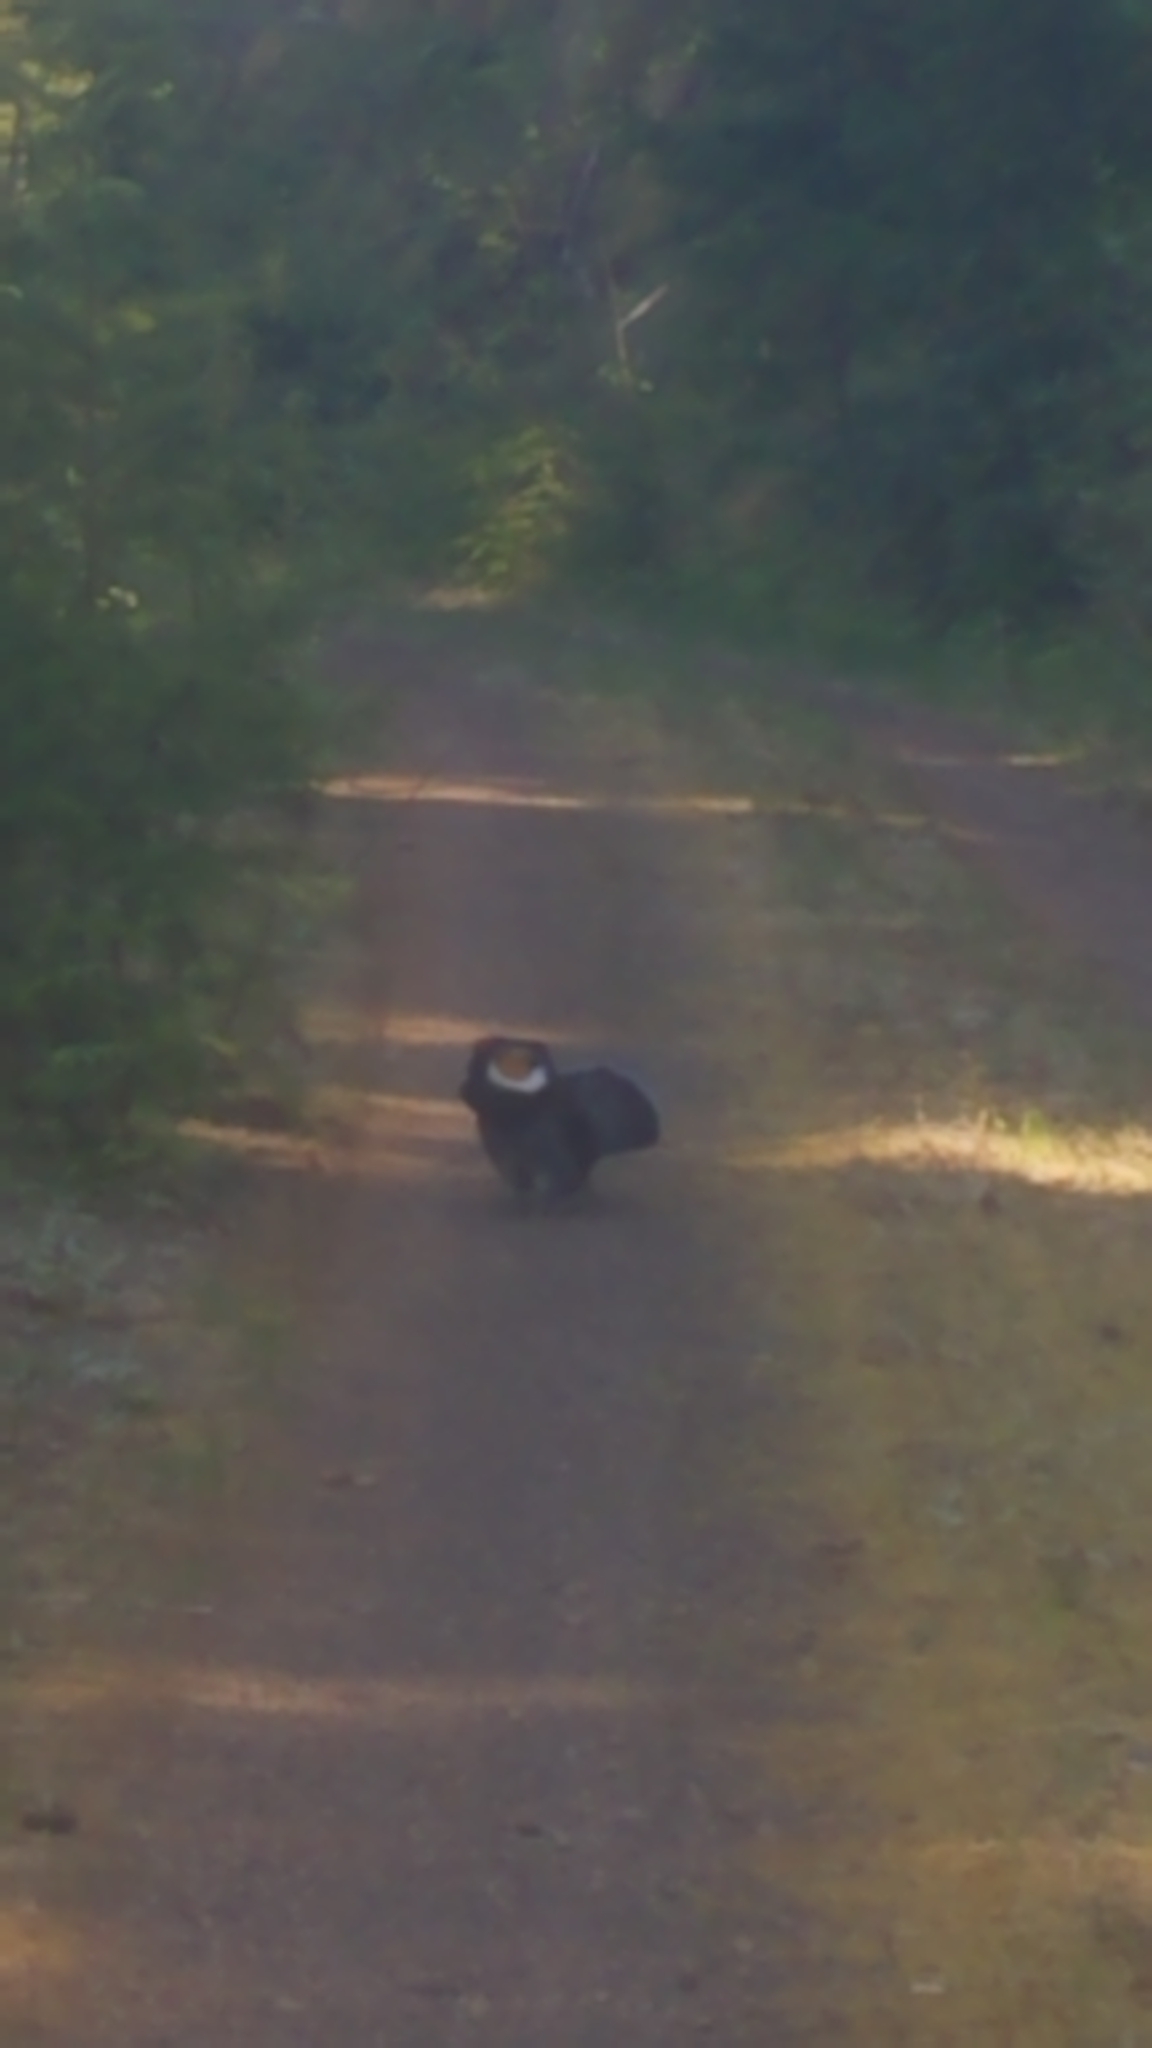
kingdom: Animalia
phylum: Chordata
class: Aves
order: Galliformes
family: Phasianidae
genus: Dendragapus
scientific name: Dendragapus fuliginosus
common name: Sooty grouse
